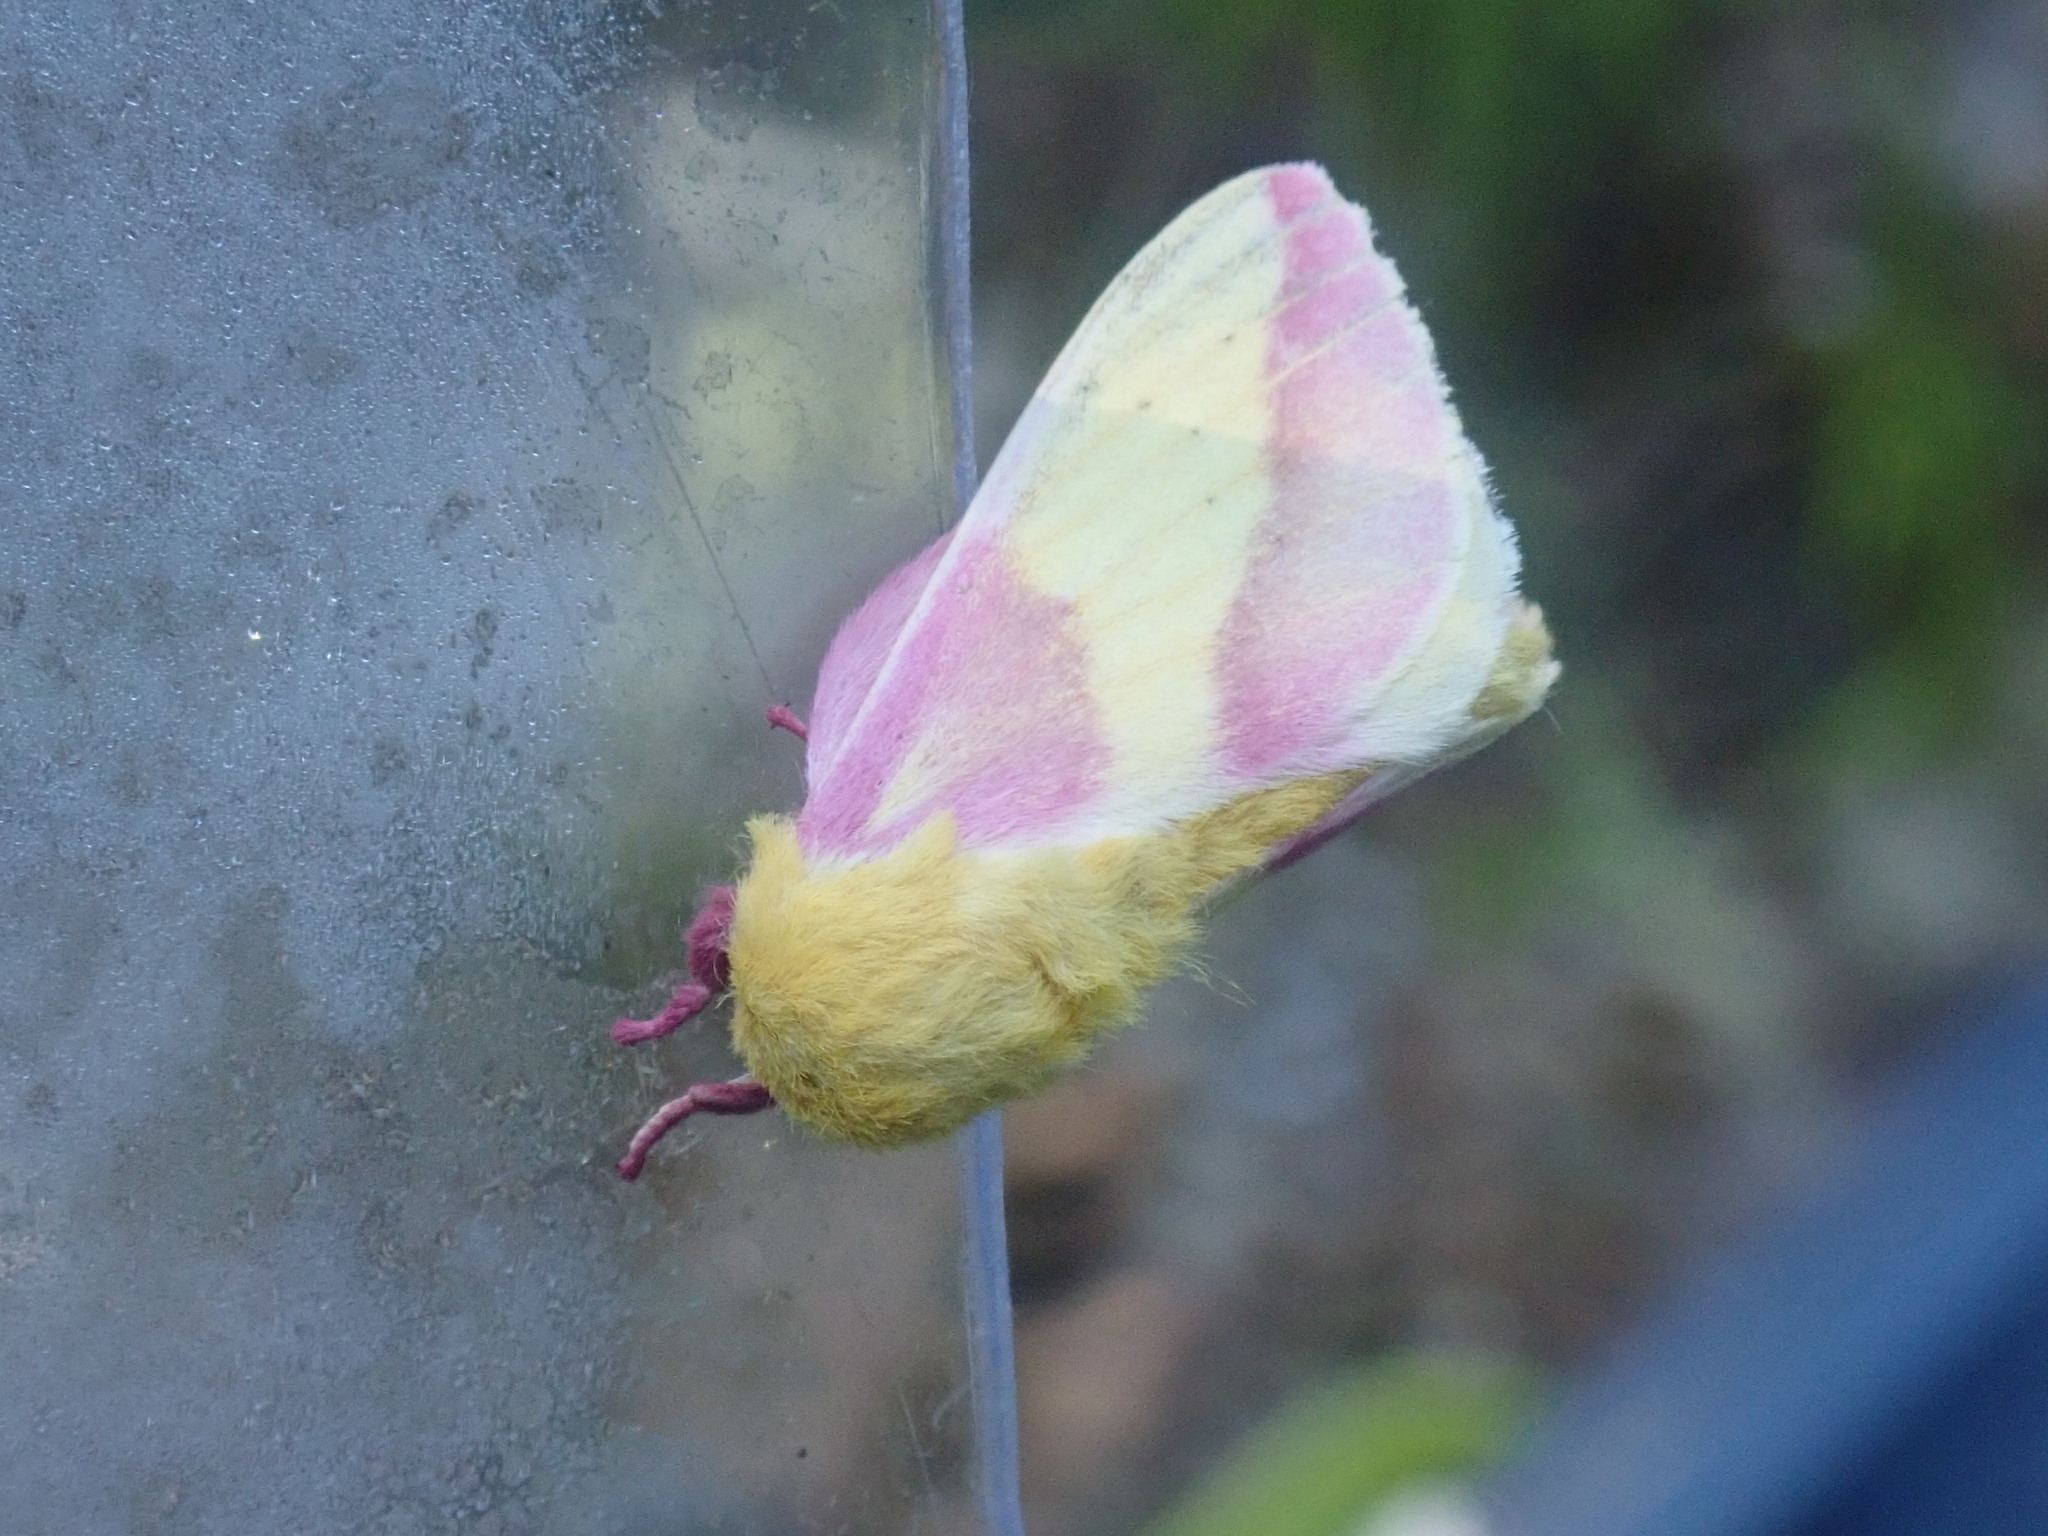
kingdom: Animalia
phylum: Arthropoda
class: Insecta
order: Lepidoptera
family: Saturniidae
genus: Dryocampa
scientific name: Dryocampa rubicunda
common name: Rosy maple moth
